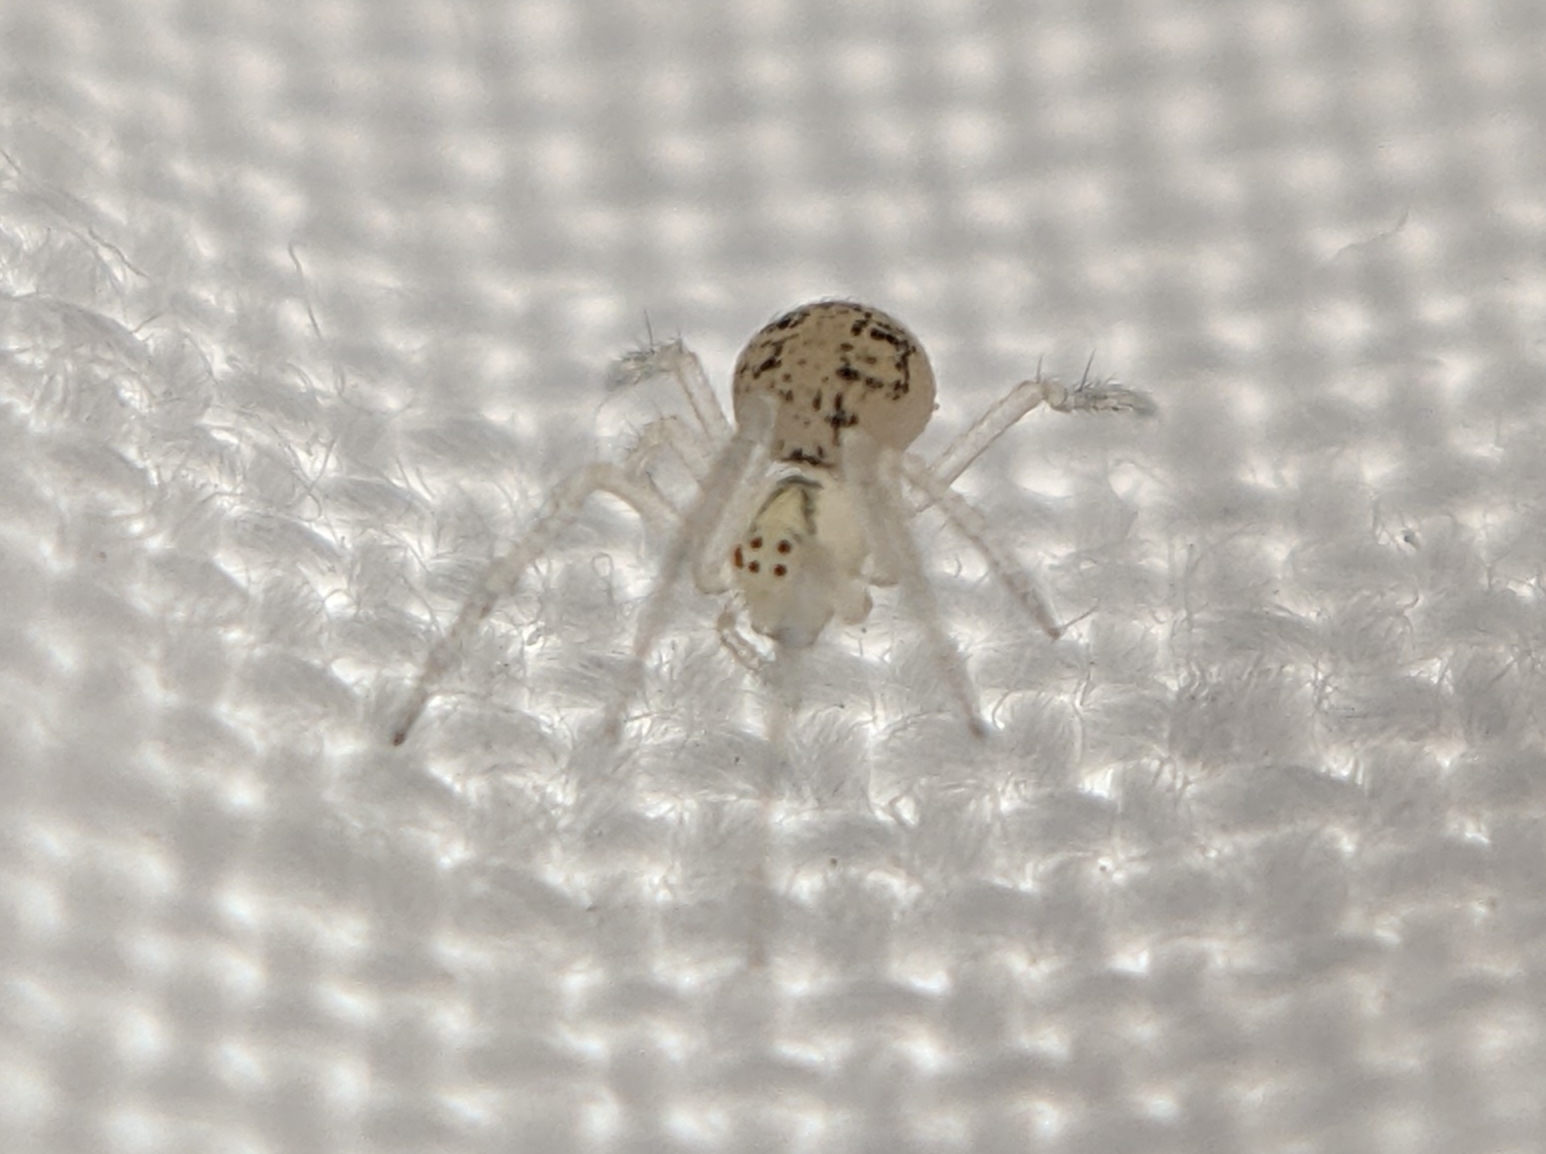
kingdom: Animalia
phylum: Arthropoda
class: Arachnida
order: Araneae
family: Theridiidae
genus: Paidiscura
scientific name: Paidiscura pallens
